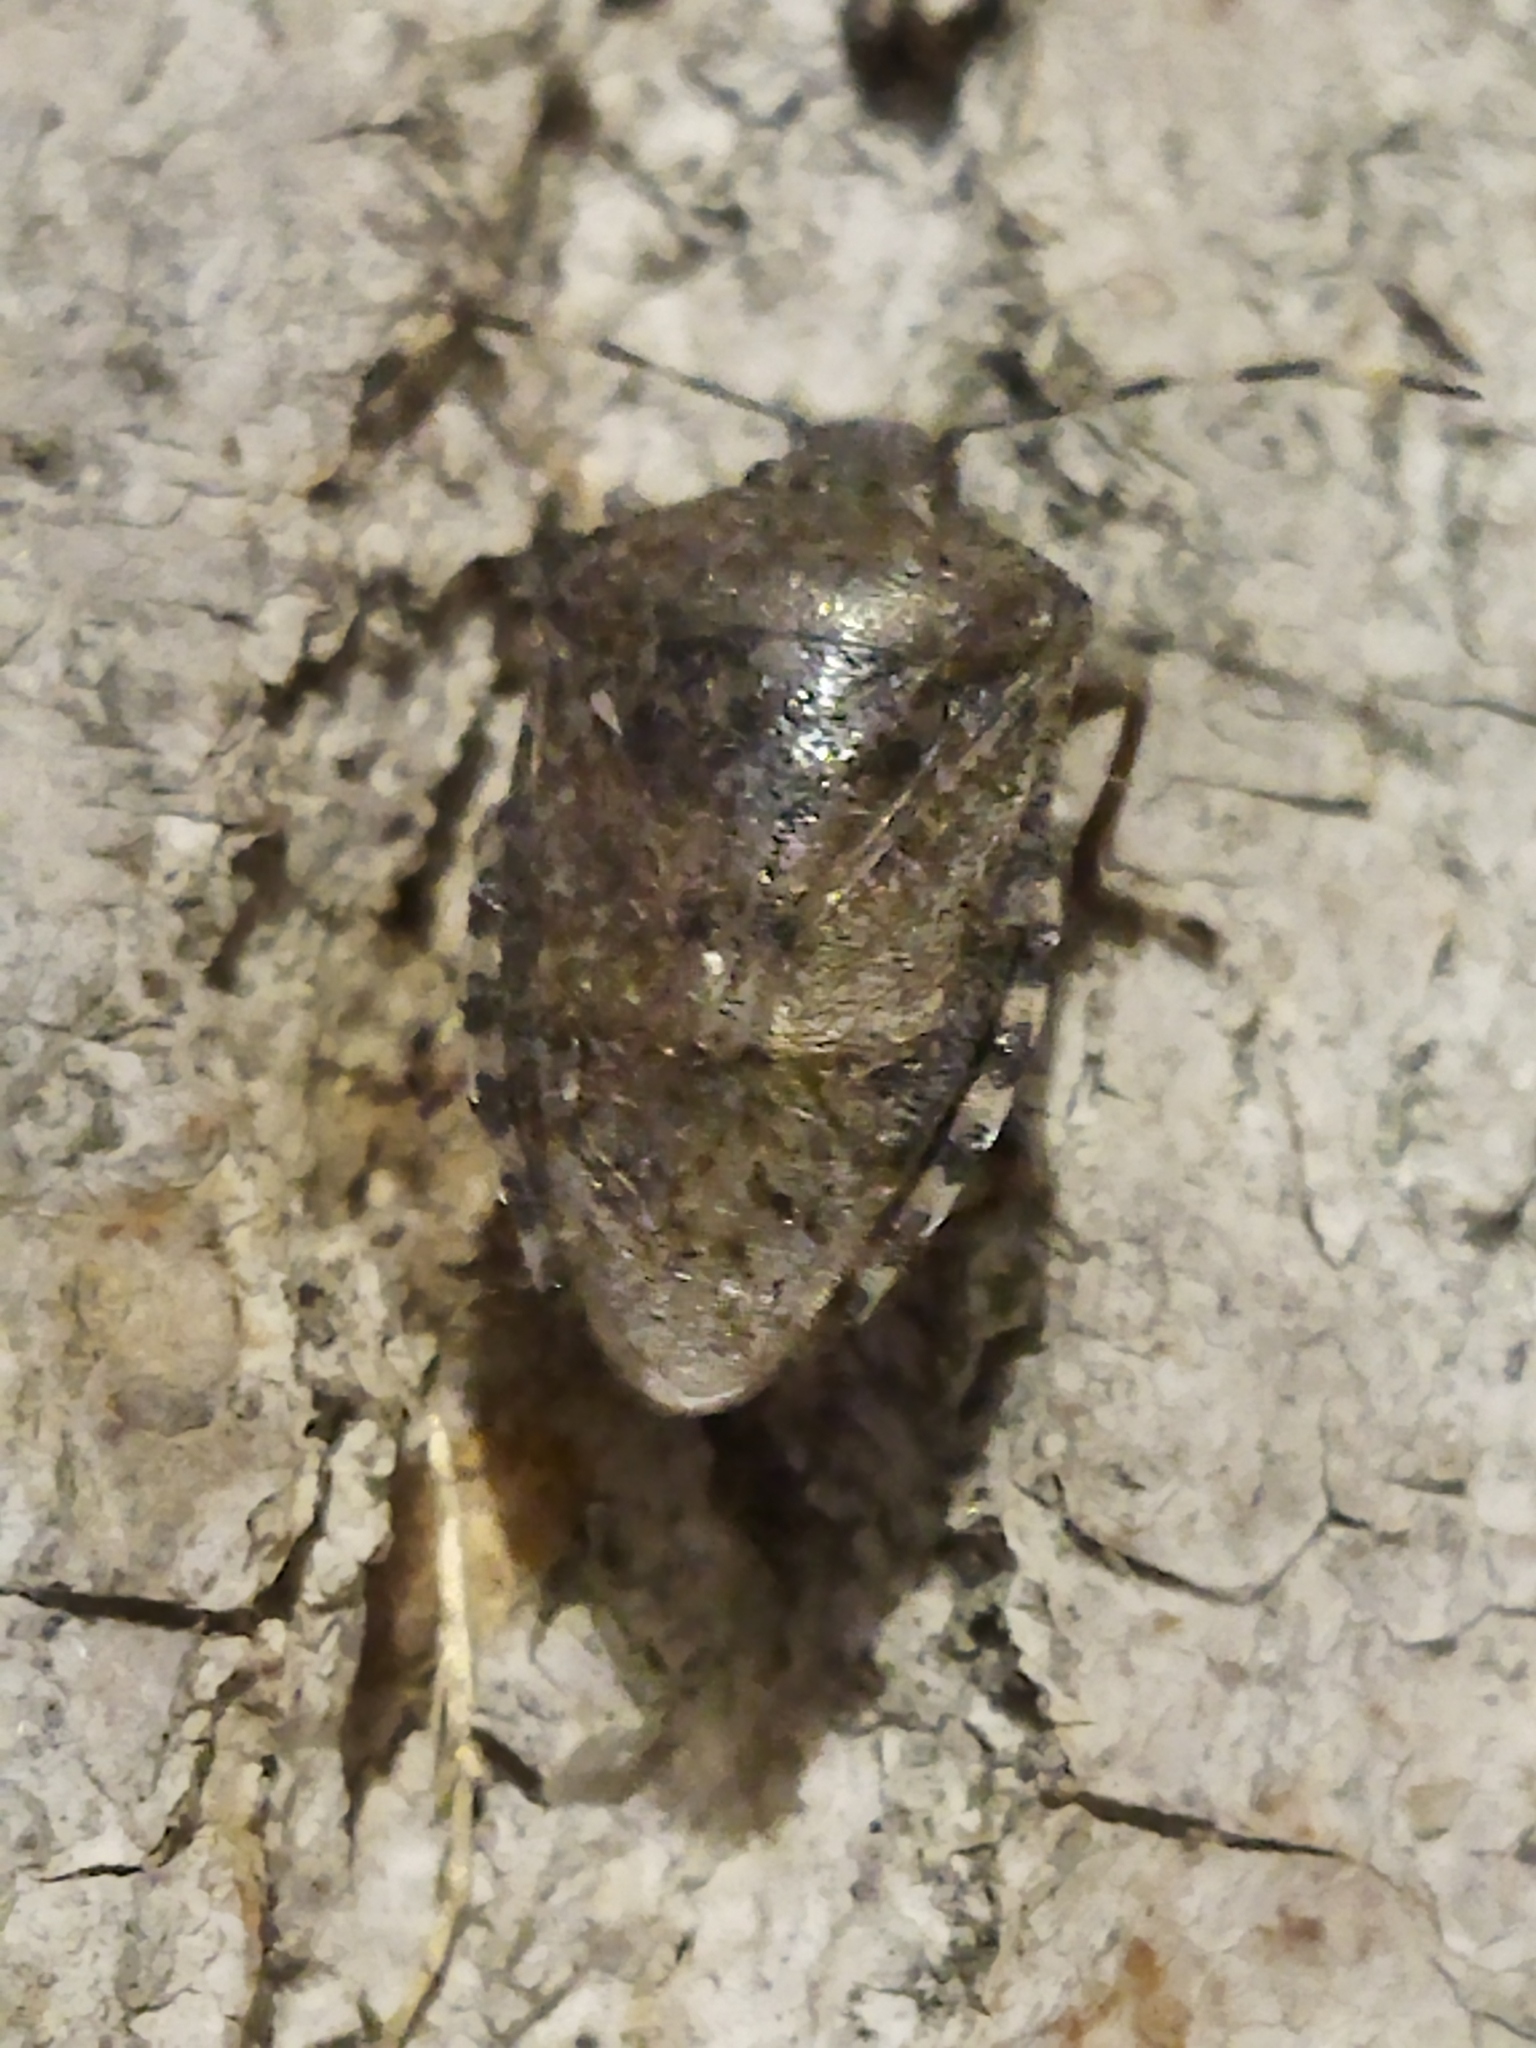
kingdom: Animalia
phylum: Arthropoda
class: Insecta
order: Hemiptera
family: Pentatomidae
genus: Rhaphigaster
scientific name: Rhaphigaster nebulosa
